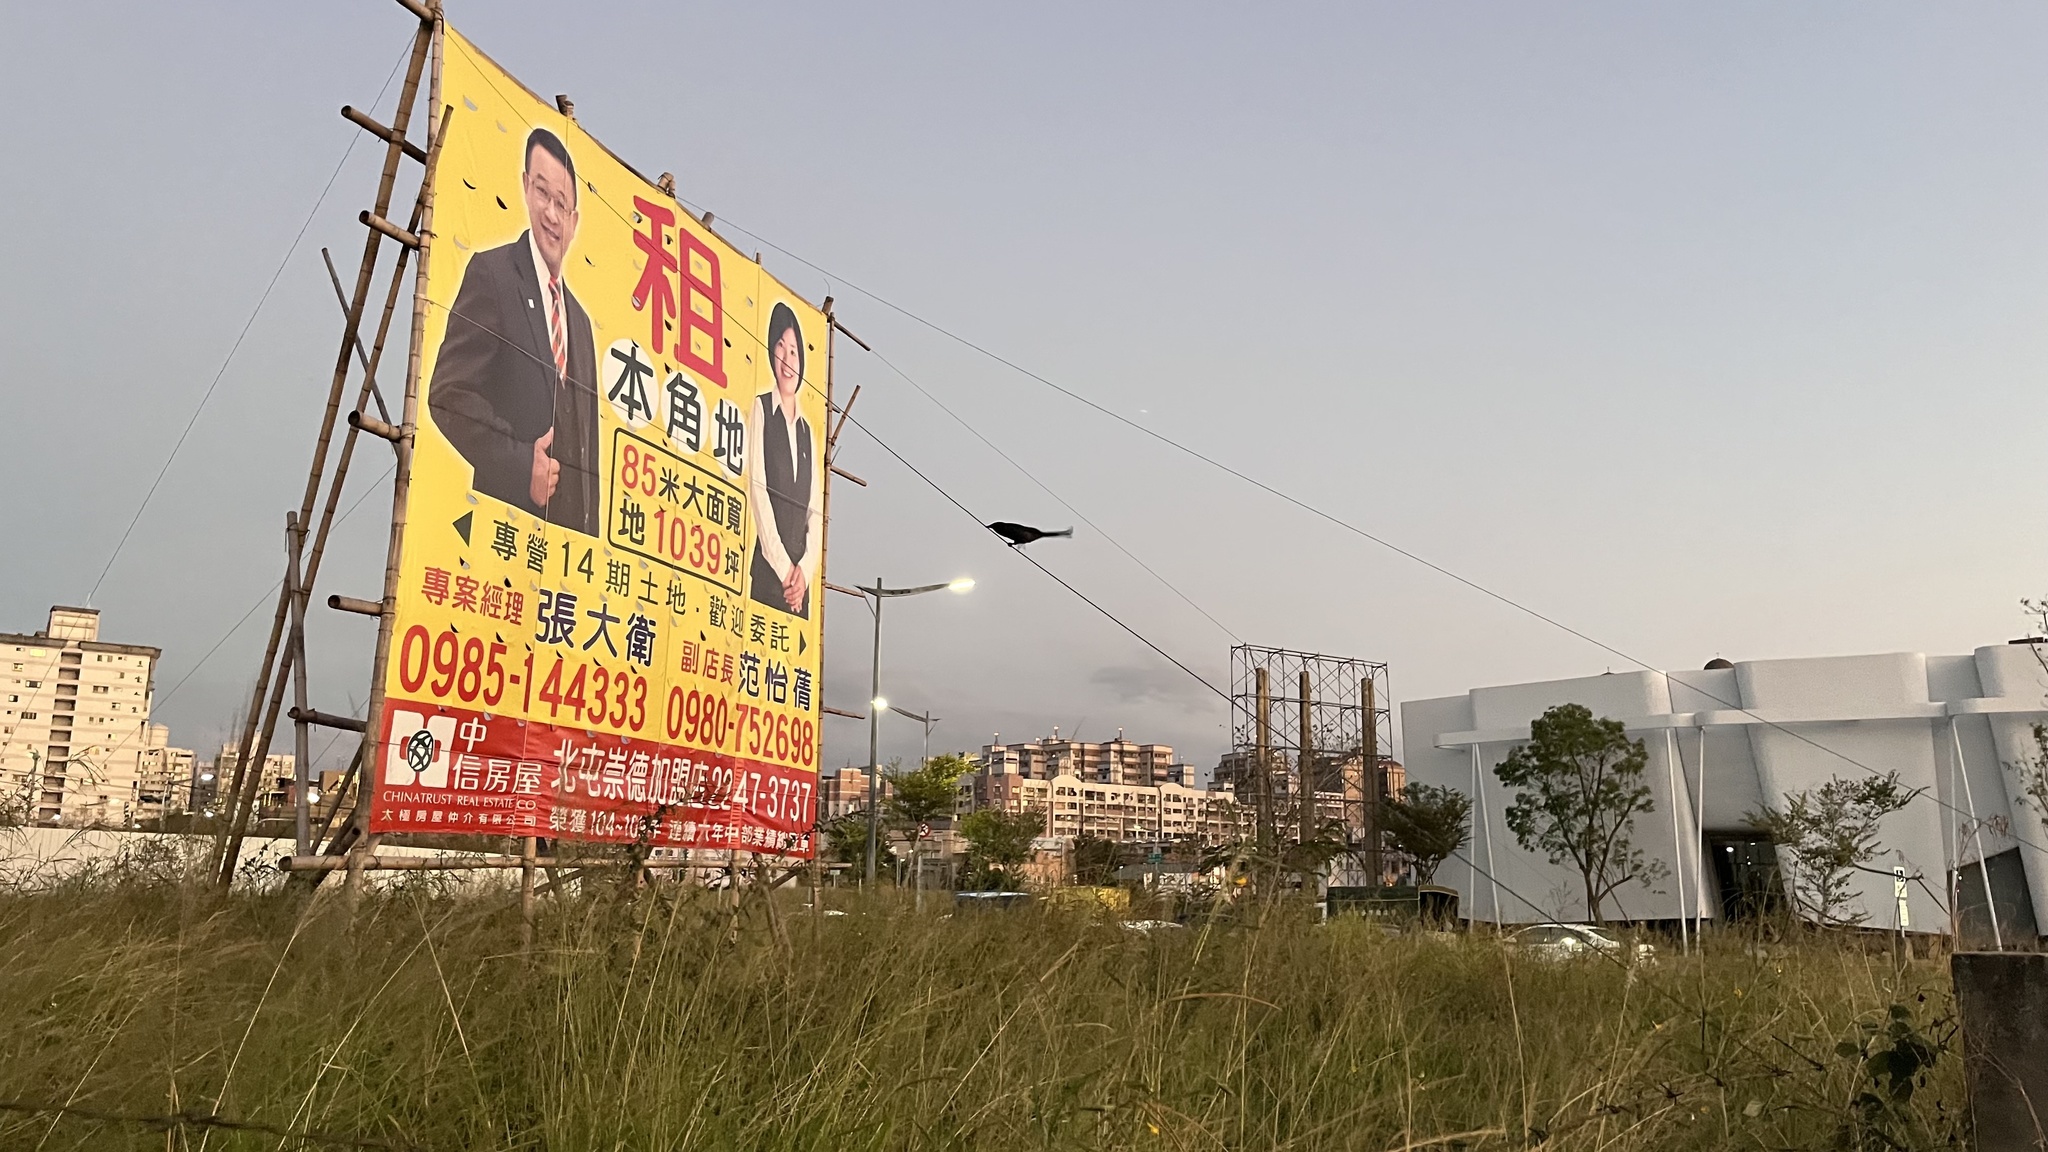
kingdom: Animalia
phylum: Chordata
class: Aves
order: Passeriformes
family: Dicruridae
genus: Dicrurus
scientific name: Dicrurus macrocercus
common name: Black drongo
